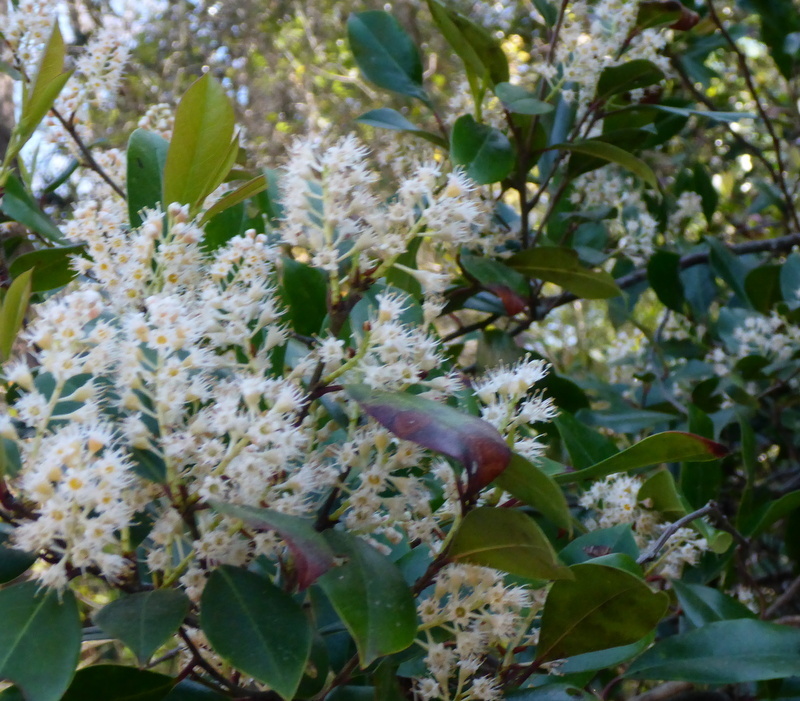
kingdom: Plantae
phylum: Tracheophyta
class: Magnoliopsida
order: Rosales
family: Rosaceae
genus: Prunus
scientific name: Prunus caroliniana
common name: Carolina laurel cherry
